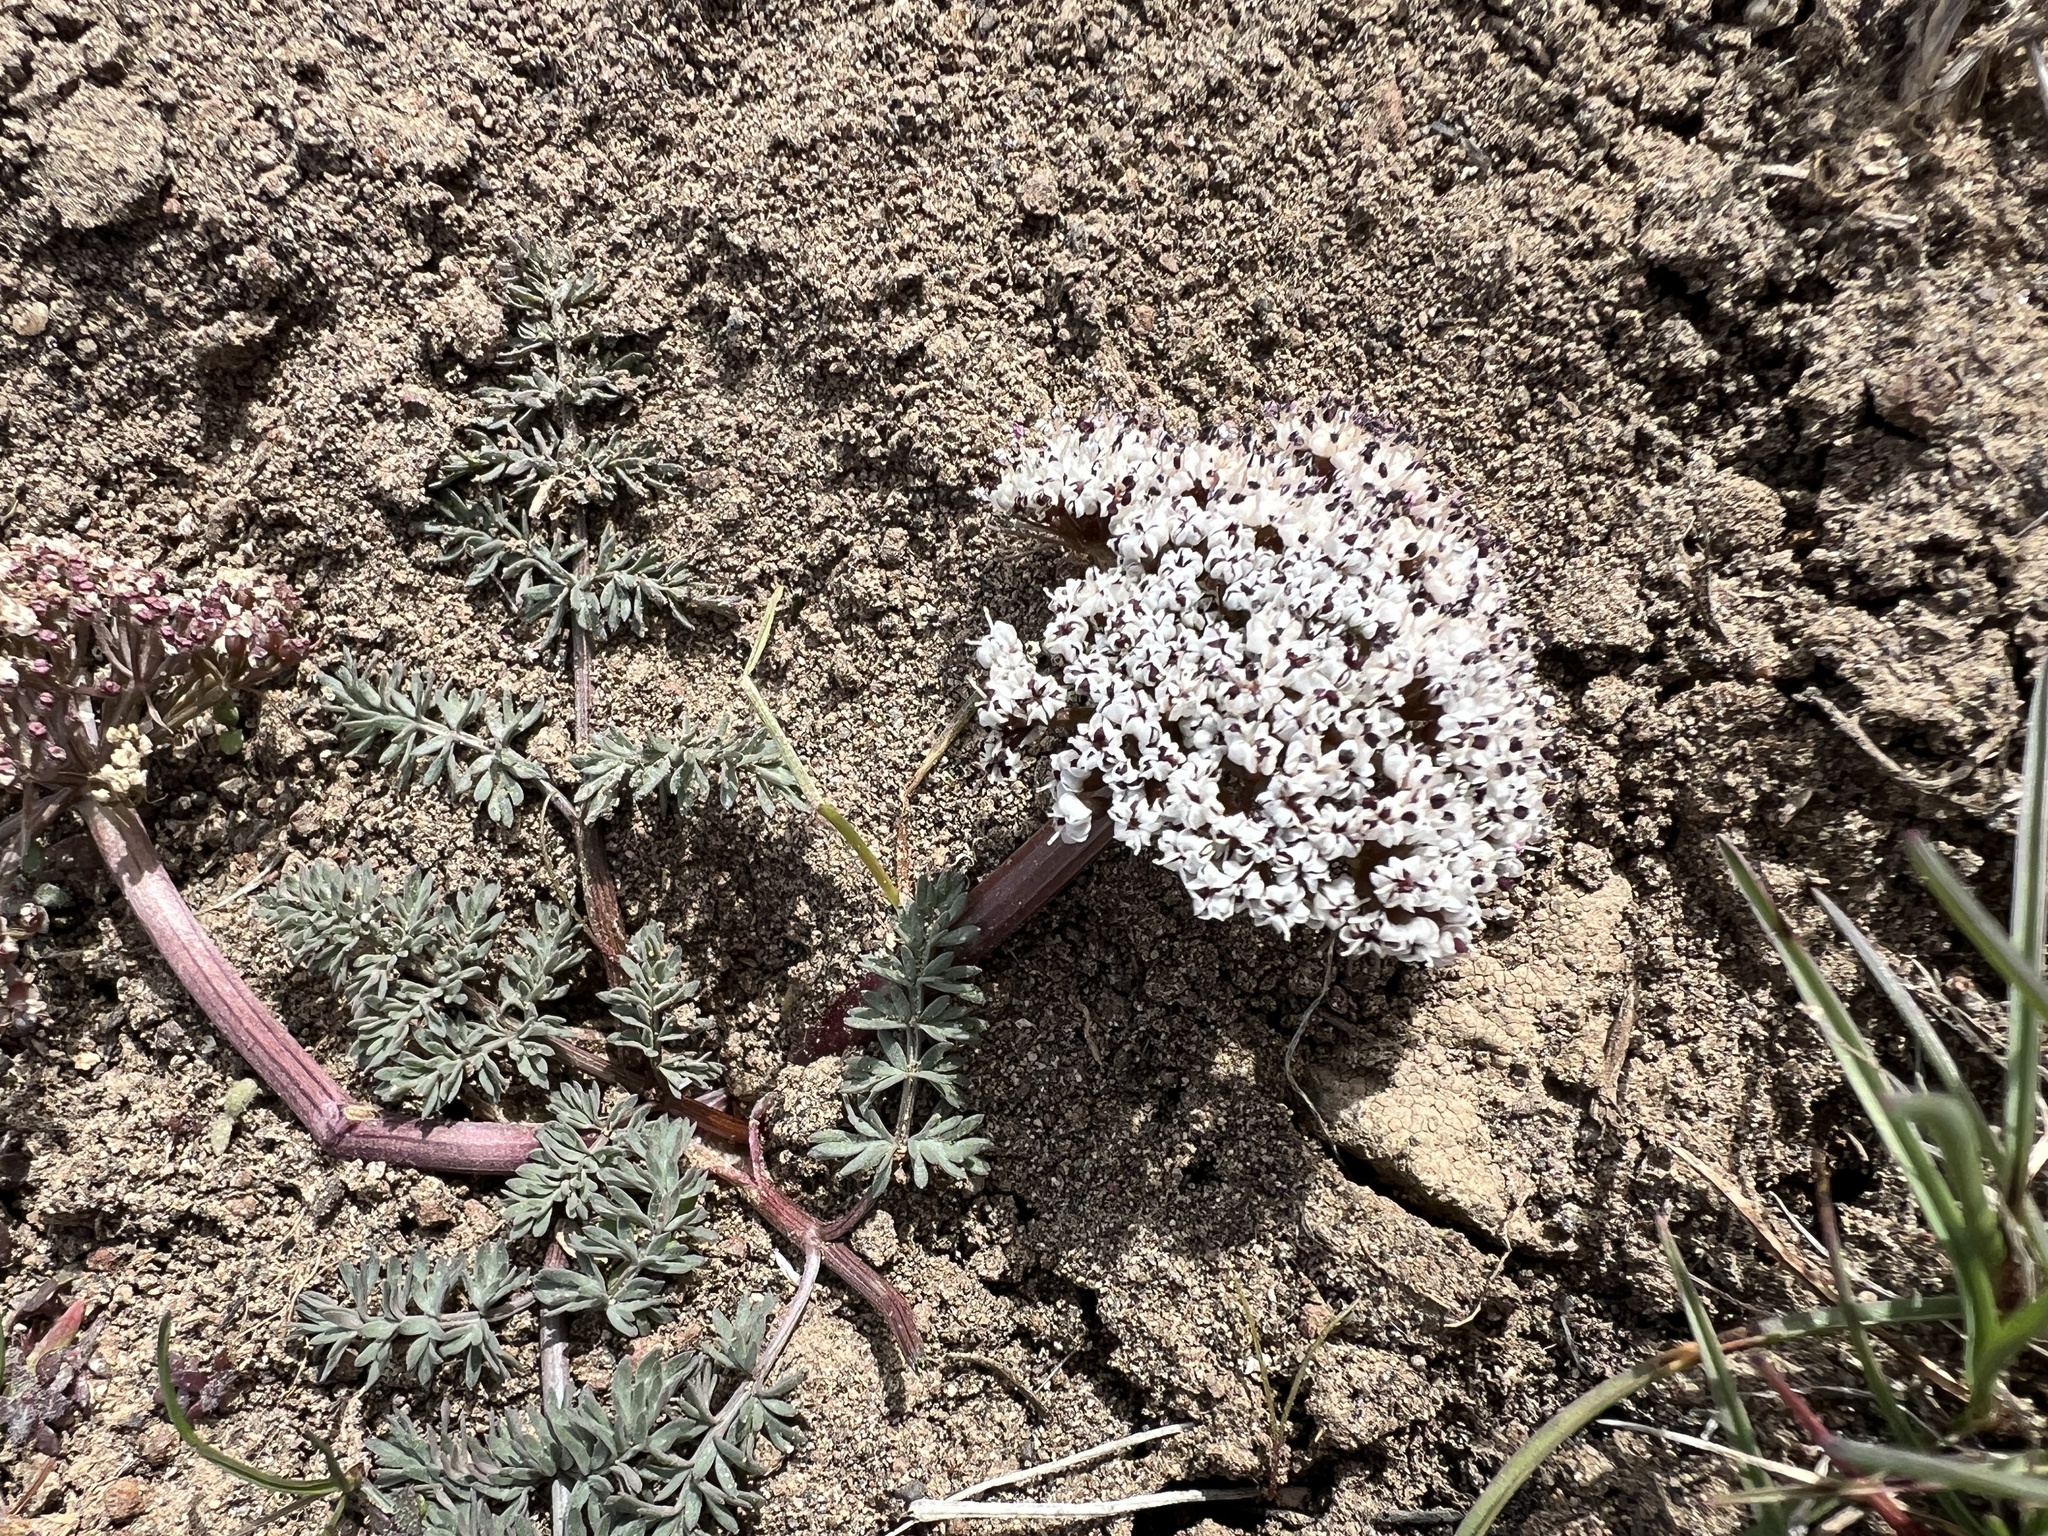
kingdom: Plantae
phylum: Tracheophyta
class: Magnoliopsida
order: Apiales
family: Apiaceae
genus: Lomatium
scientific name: Lomatium canbyi
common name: Chucklusa
